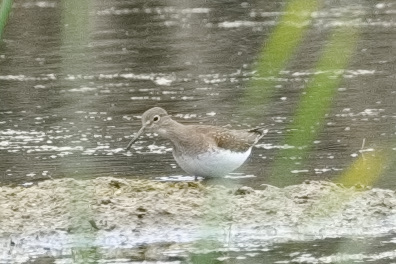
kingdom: Animalia
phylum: Chordata
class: Aves
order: Charadriiformes
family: Scolopacidae
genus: Tringa
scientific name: Tringa solitaria
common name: Solitary sandpiper
